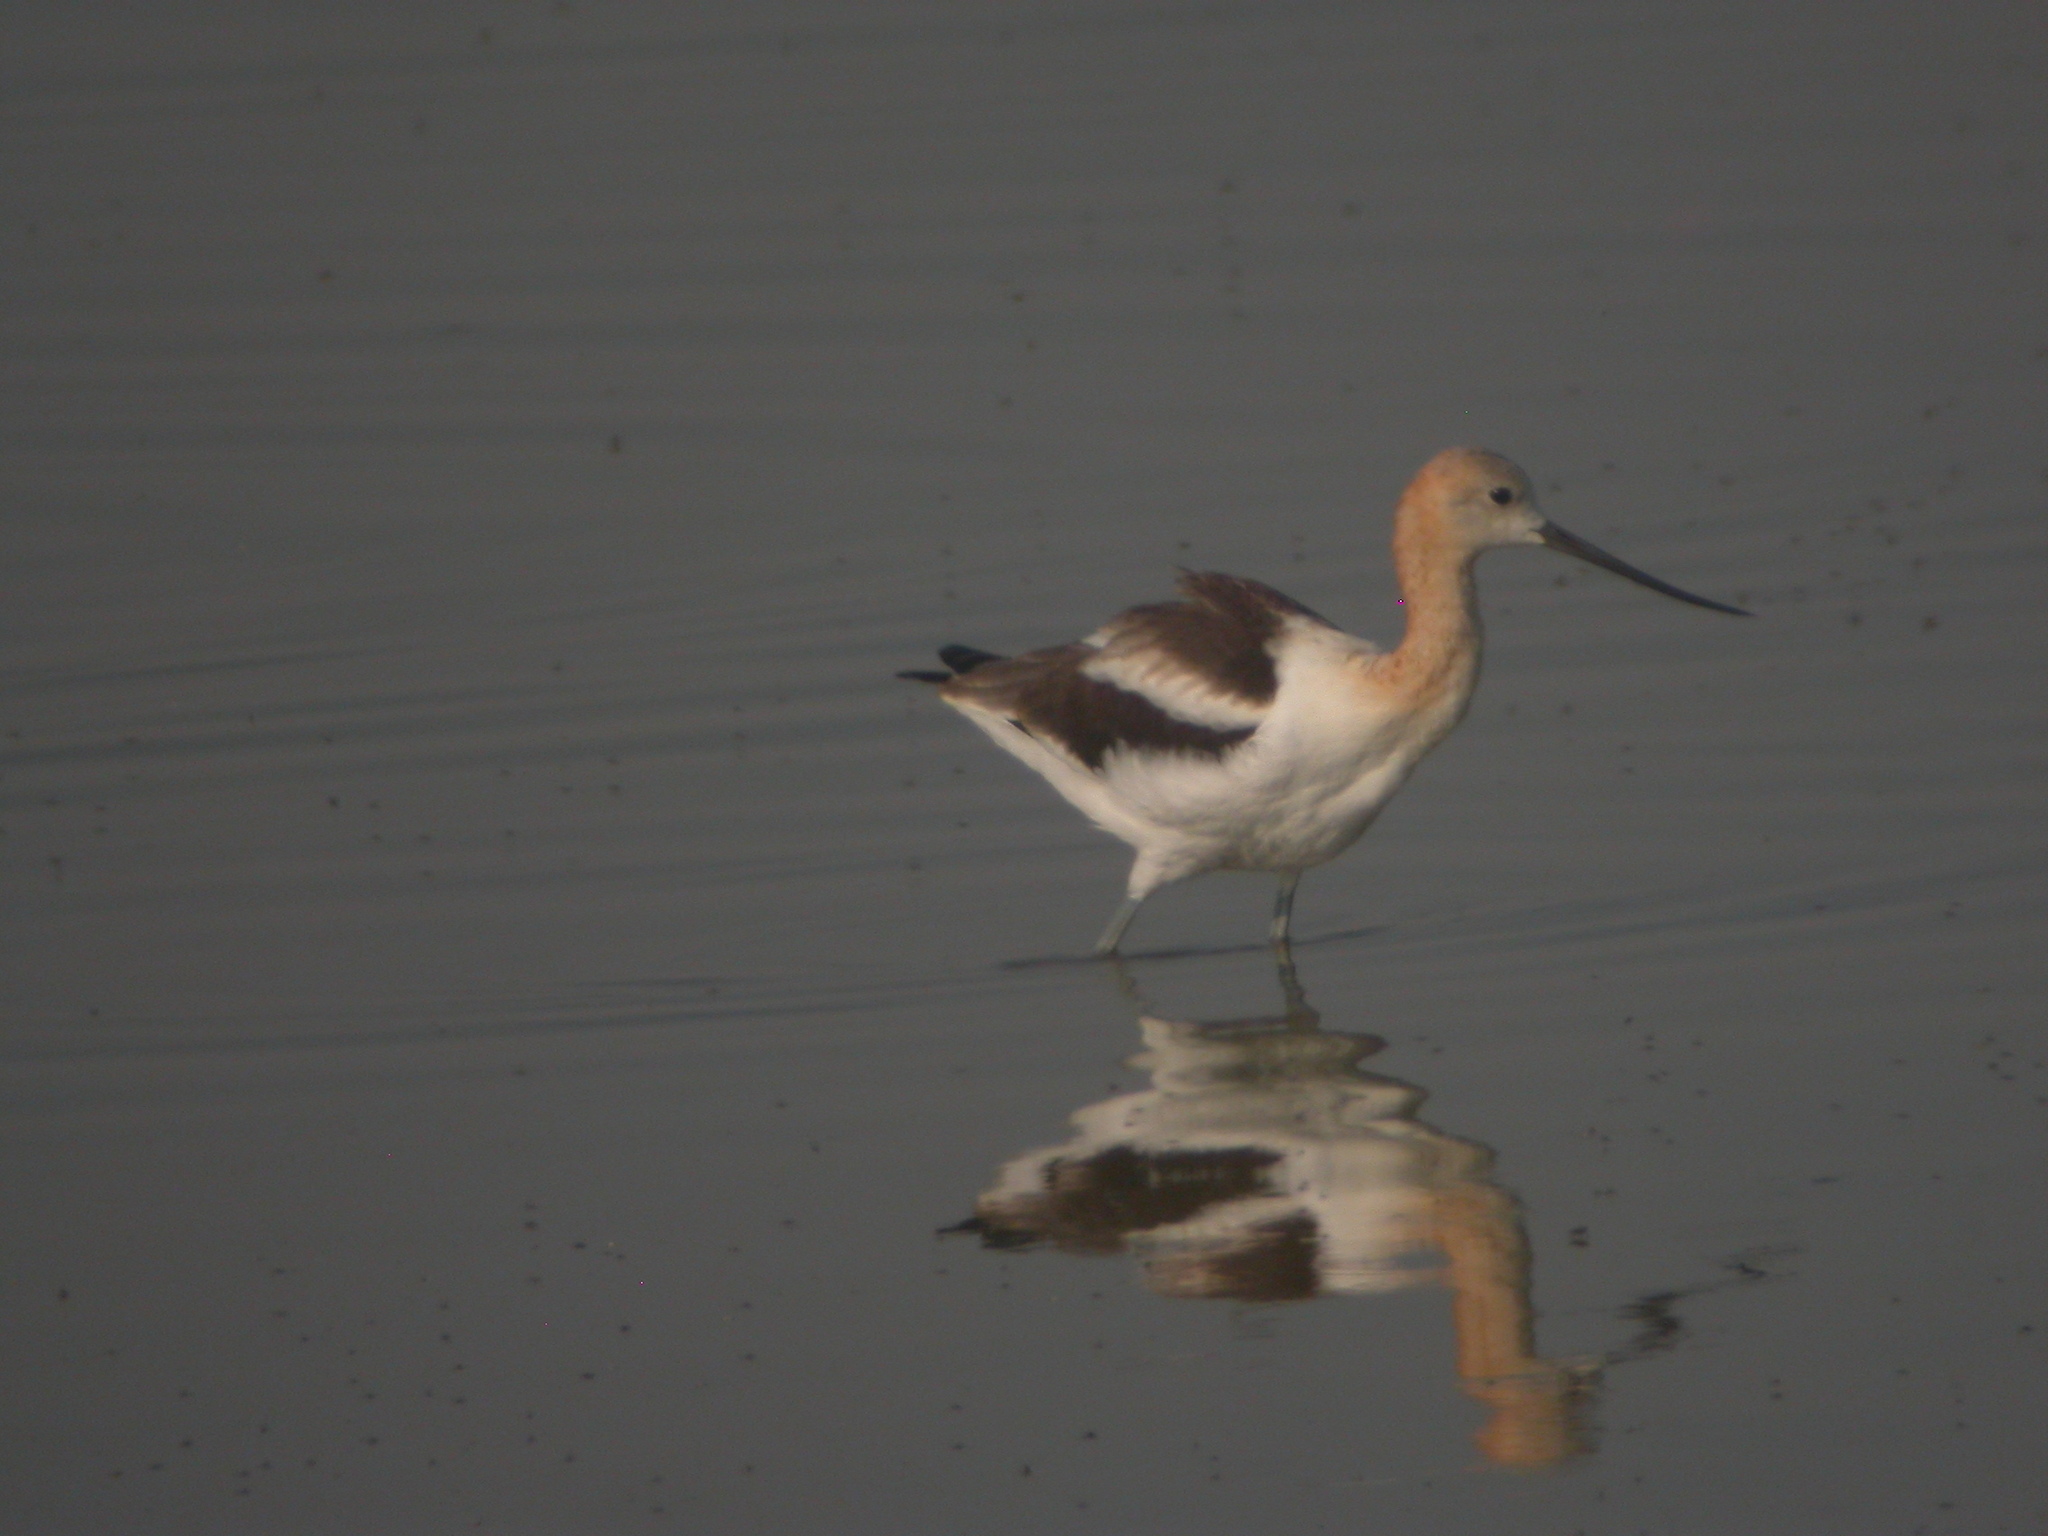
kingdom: Animalia
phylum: Chordata
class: Aves
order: Charadriiformes
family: Recurvirostridae
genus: Recurvirostra
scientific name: Recurvirostra americana
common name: American avocet
